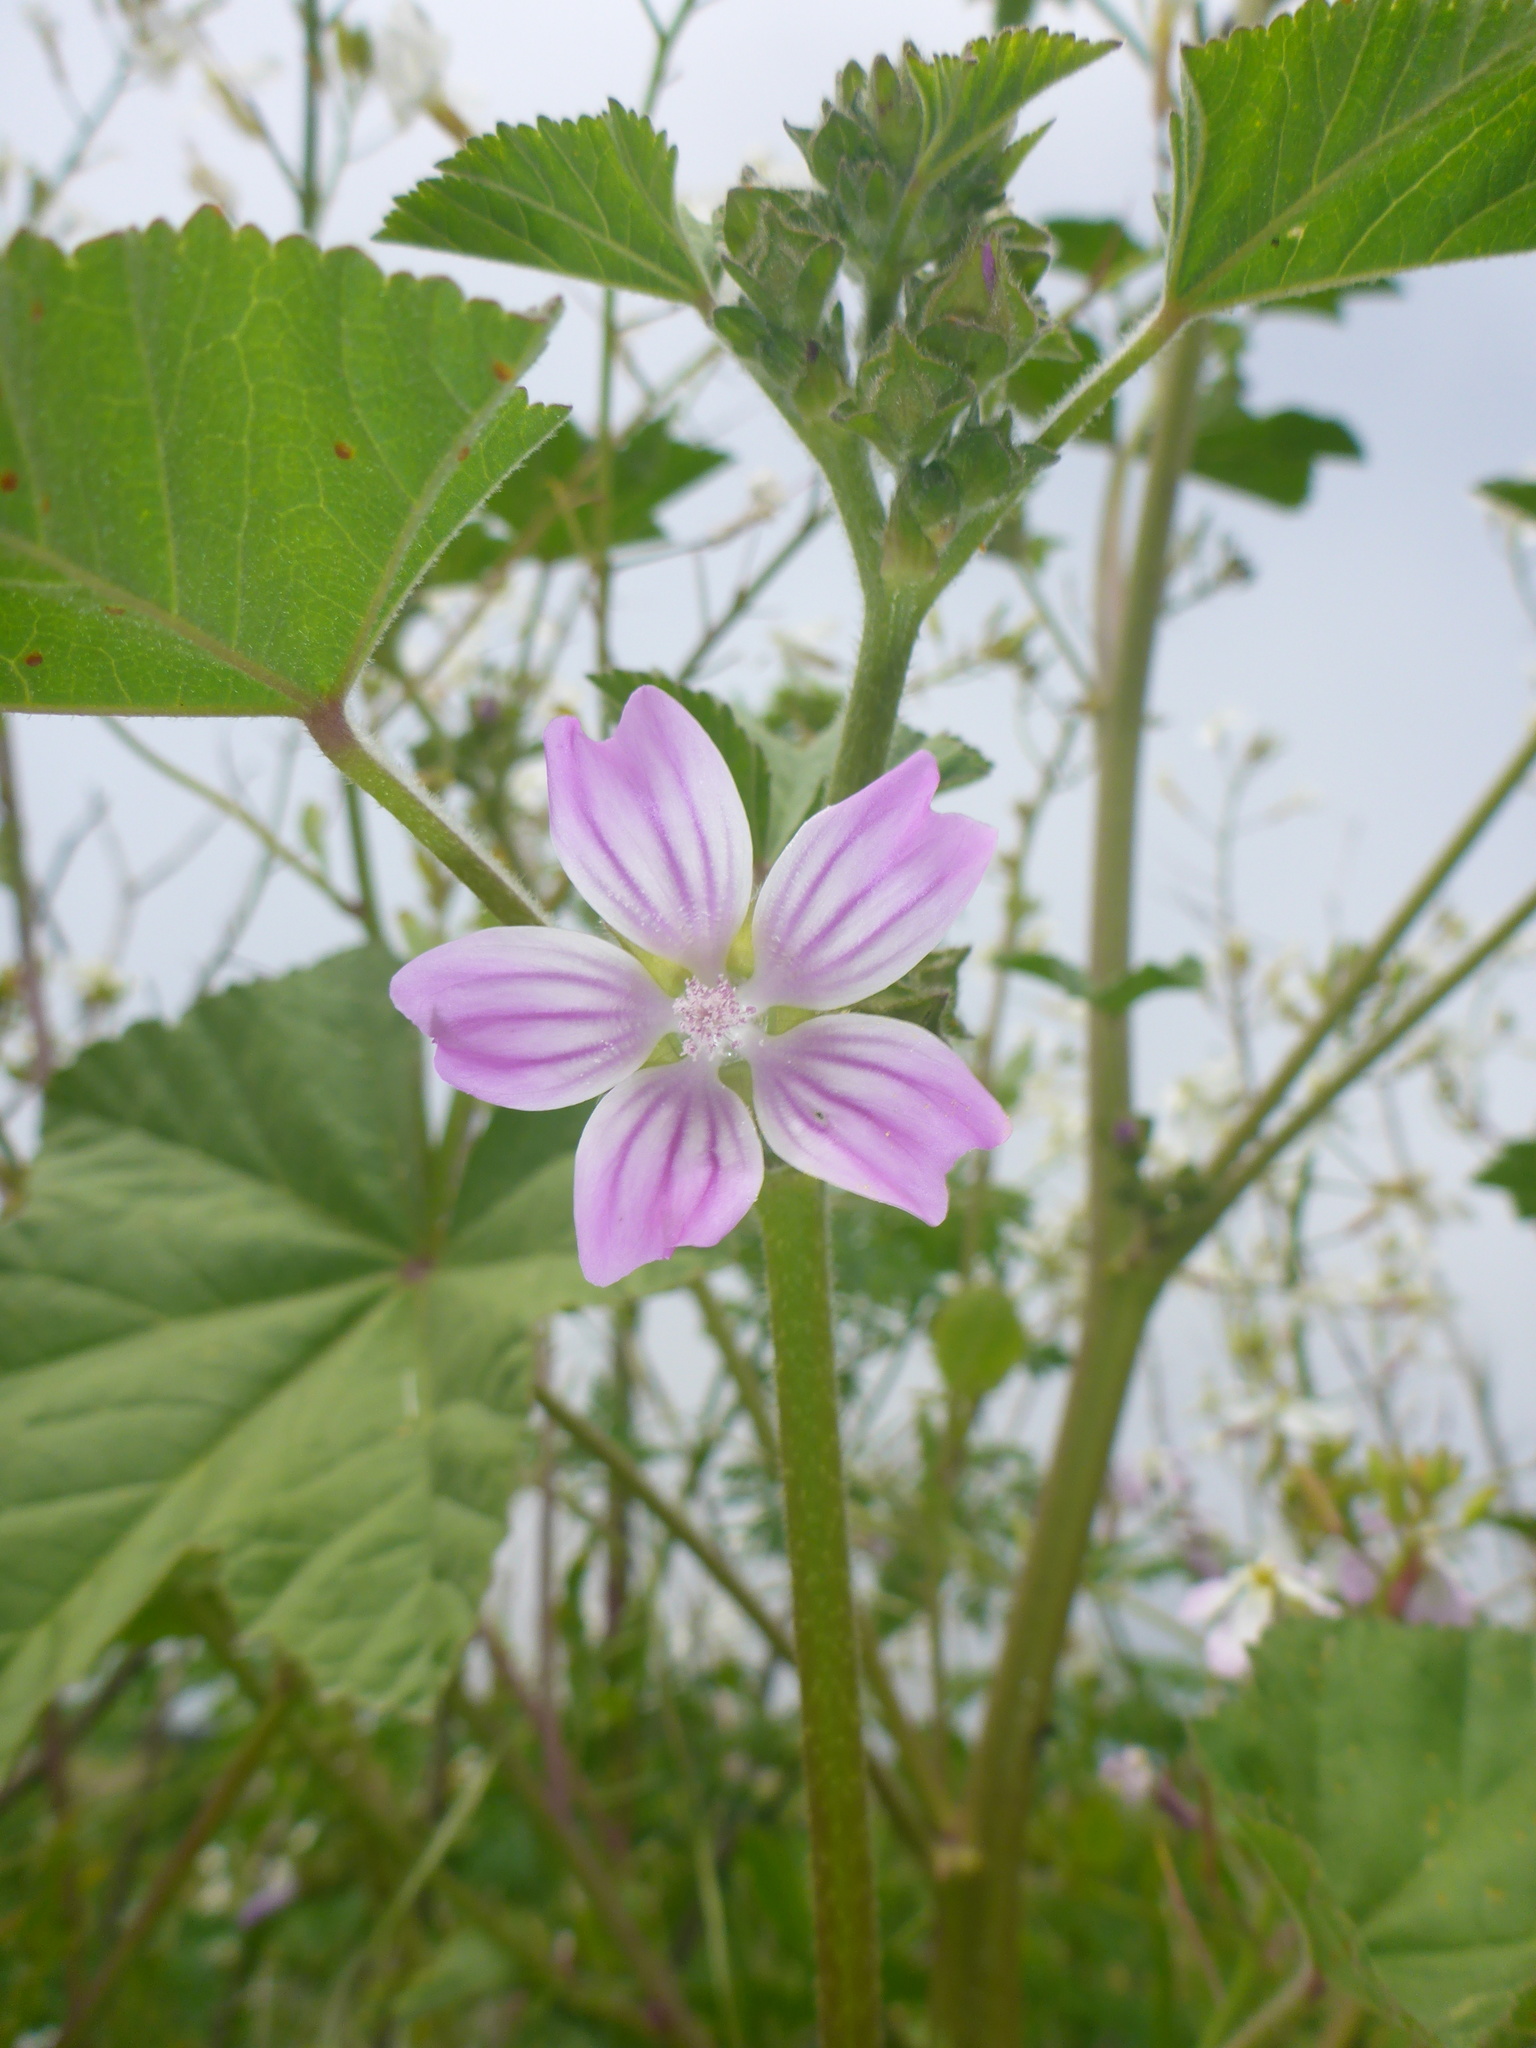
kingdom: Plantae
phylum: Tracheophyta
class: Magnoliopsida
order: Malvales
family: Malvaceae
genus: Malva
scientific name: Malva multiflora
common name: Cheeseweed
